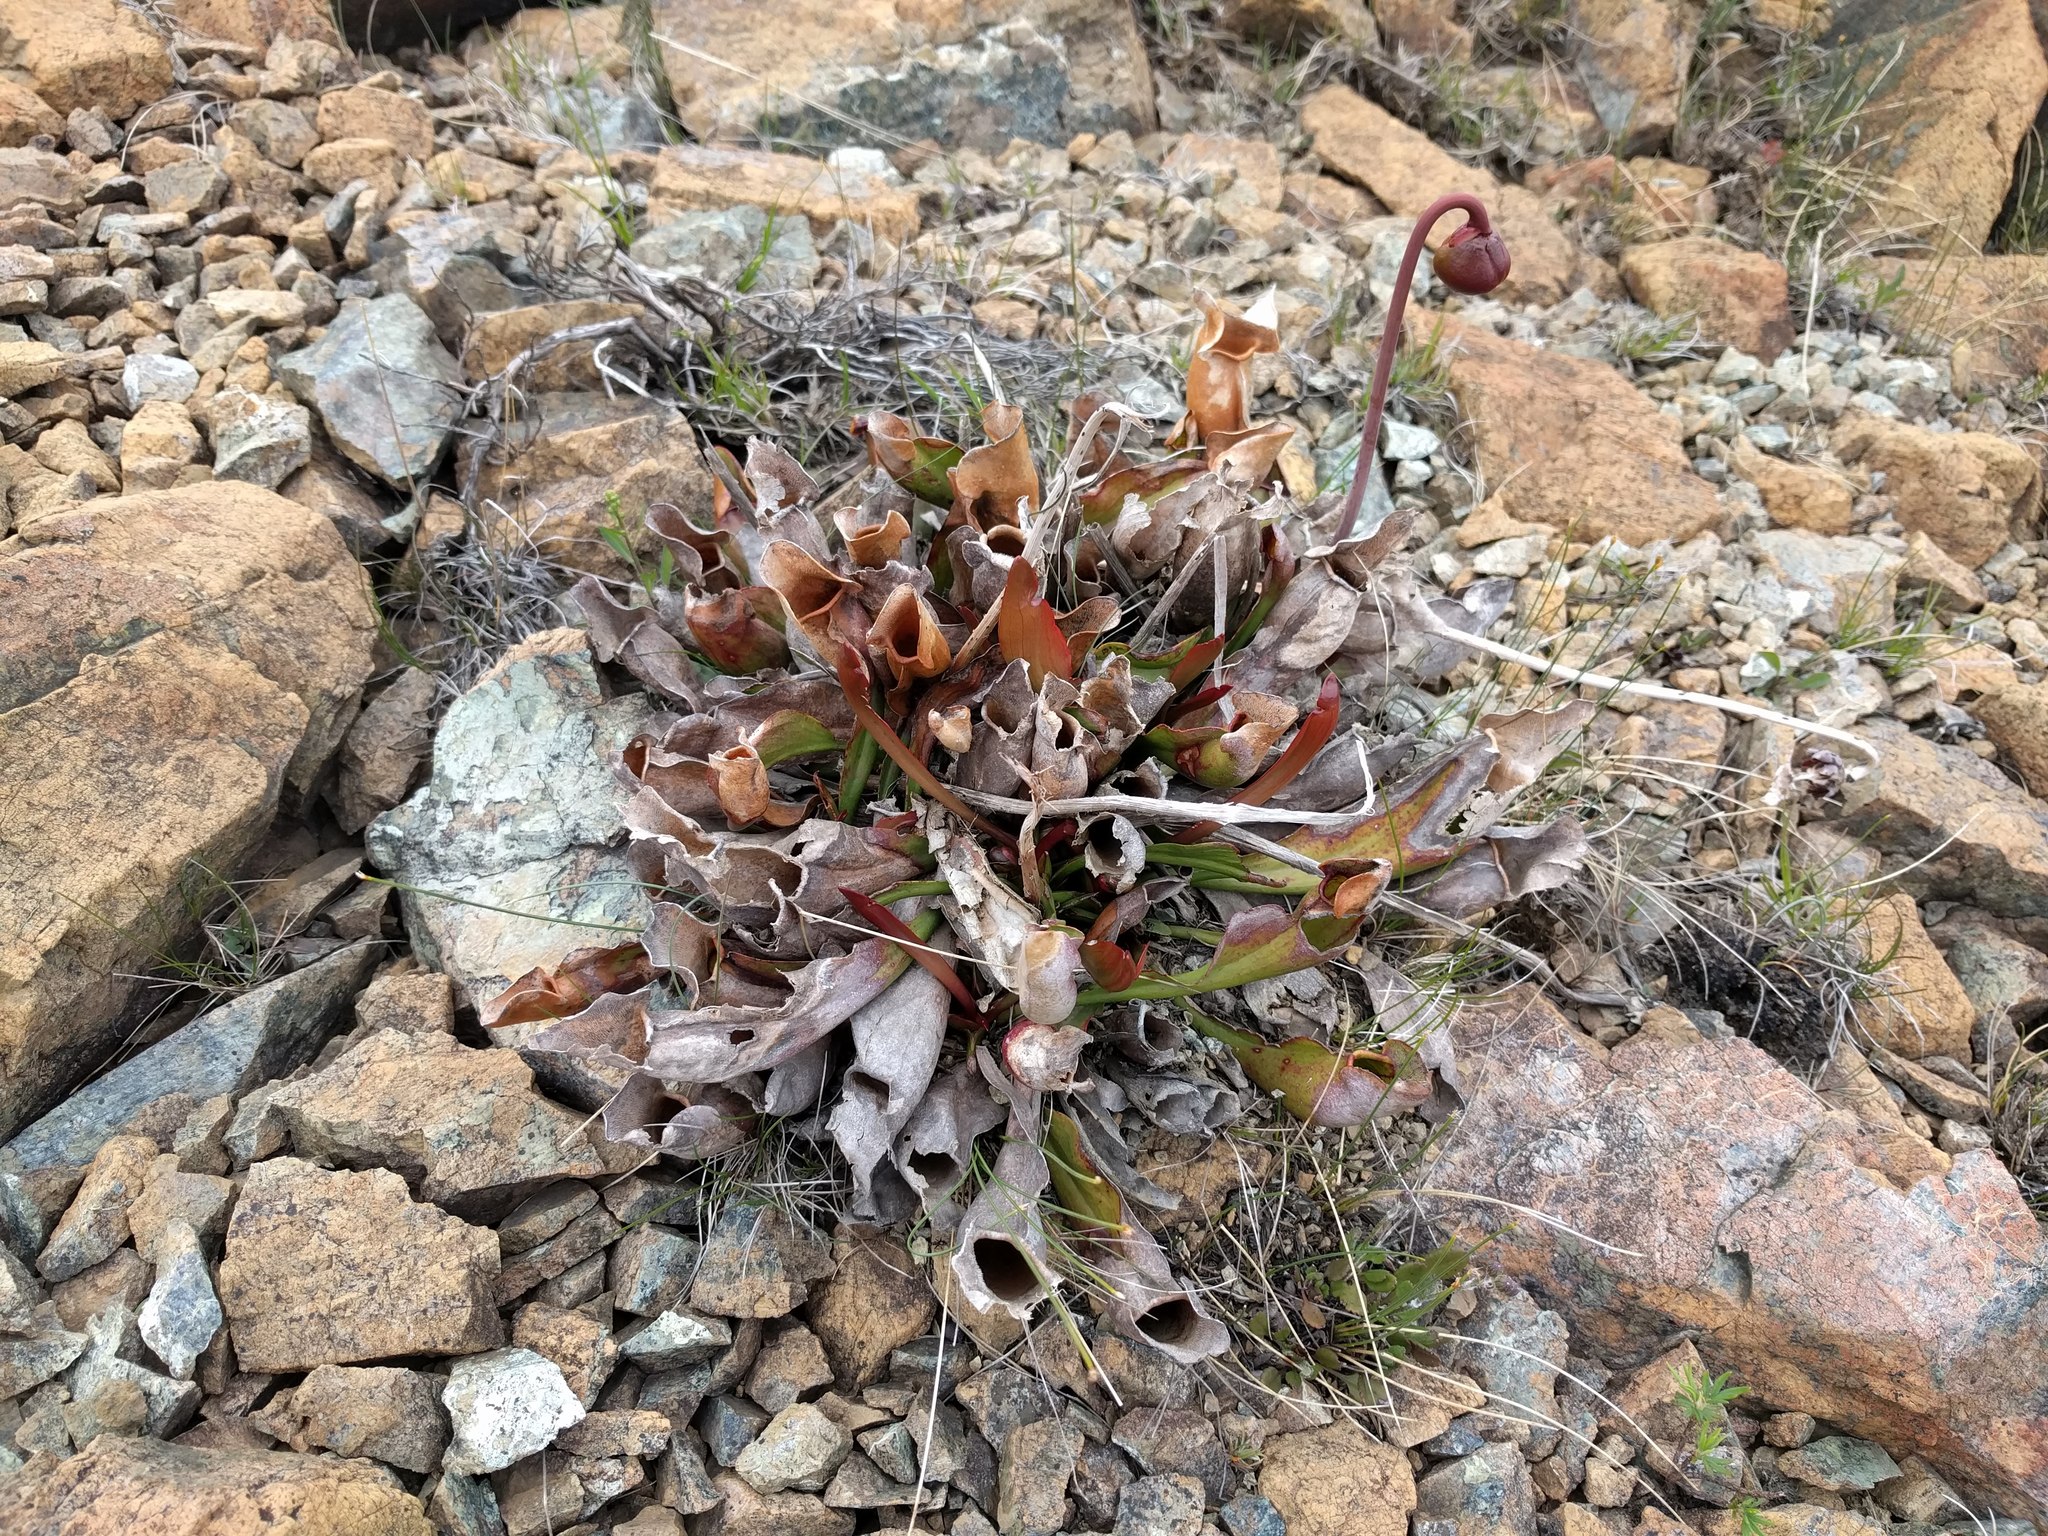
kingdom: Plantae
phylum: Tracheophyta
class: Magnoliopsida
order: Ericales
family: Sarraceniaceae
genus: Sarracenia
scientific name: Sarracenia purpurea
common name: Pitcherplant
